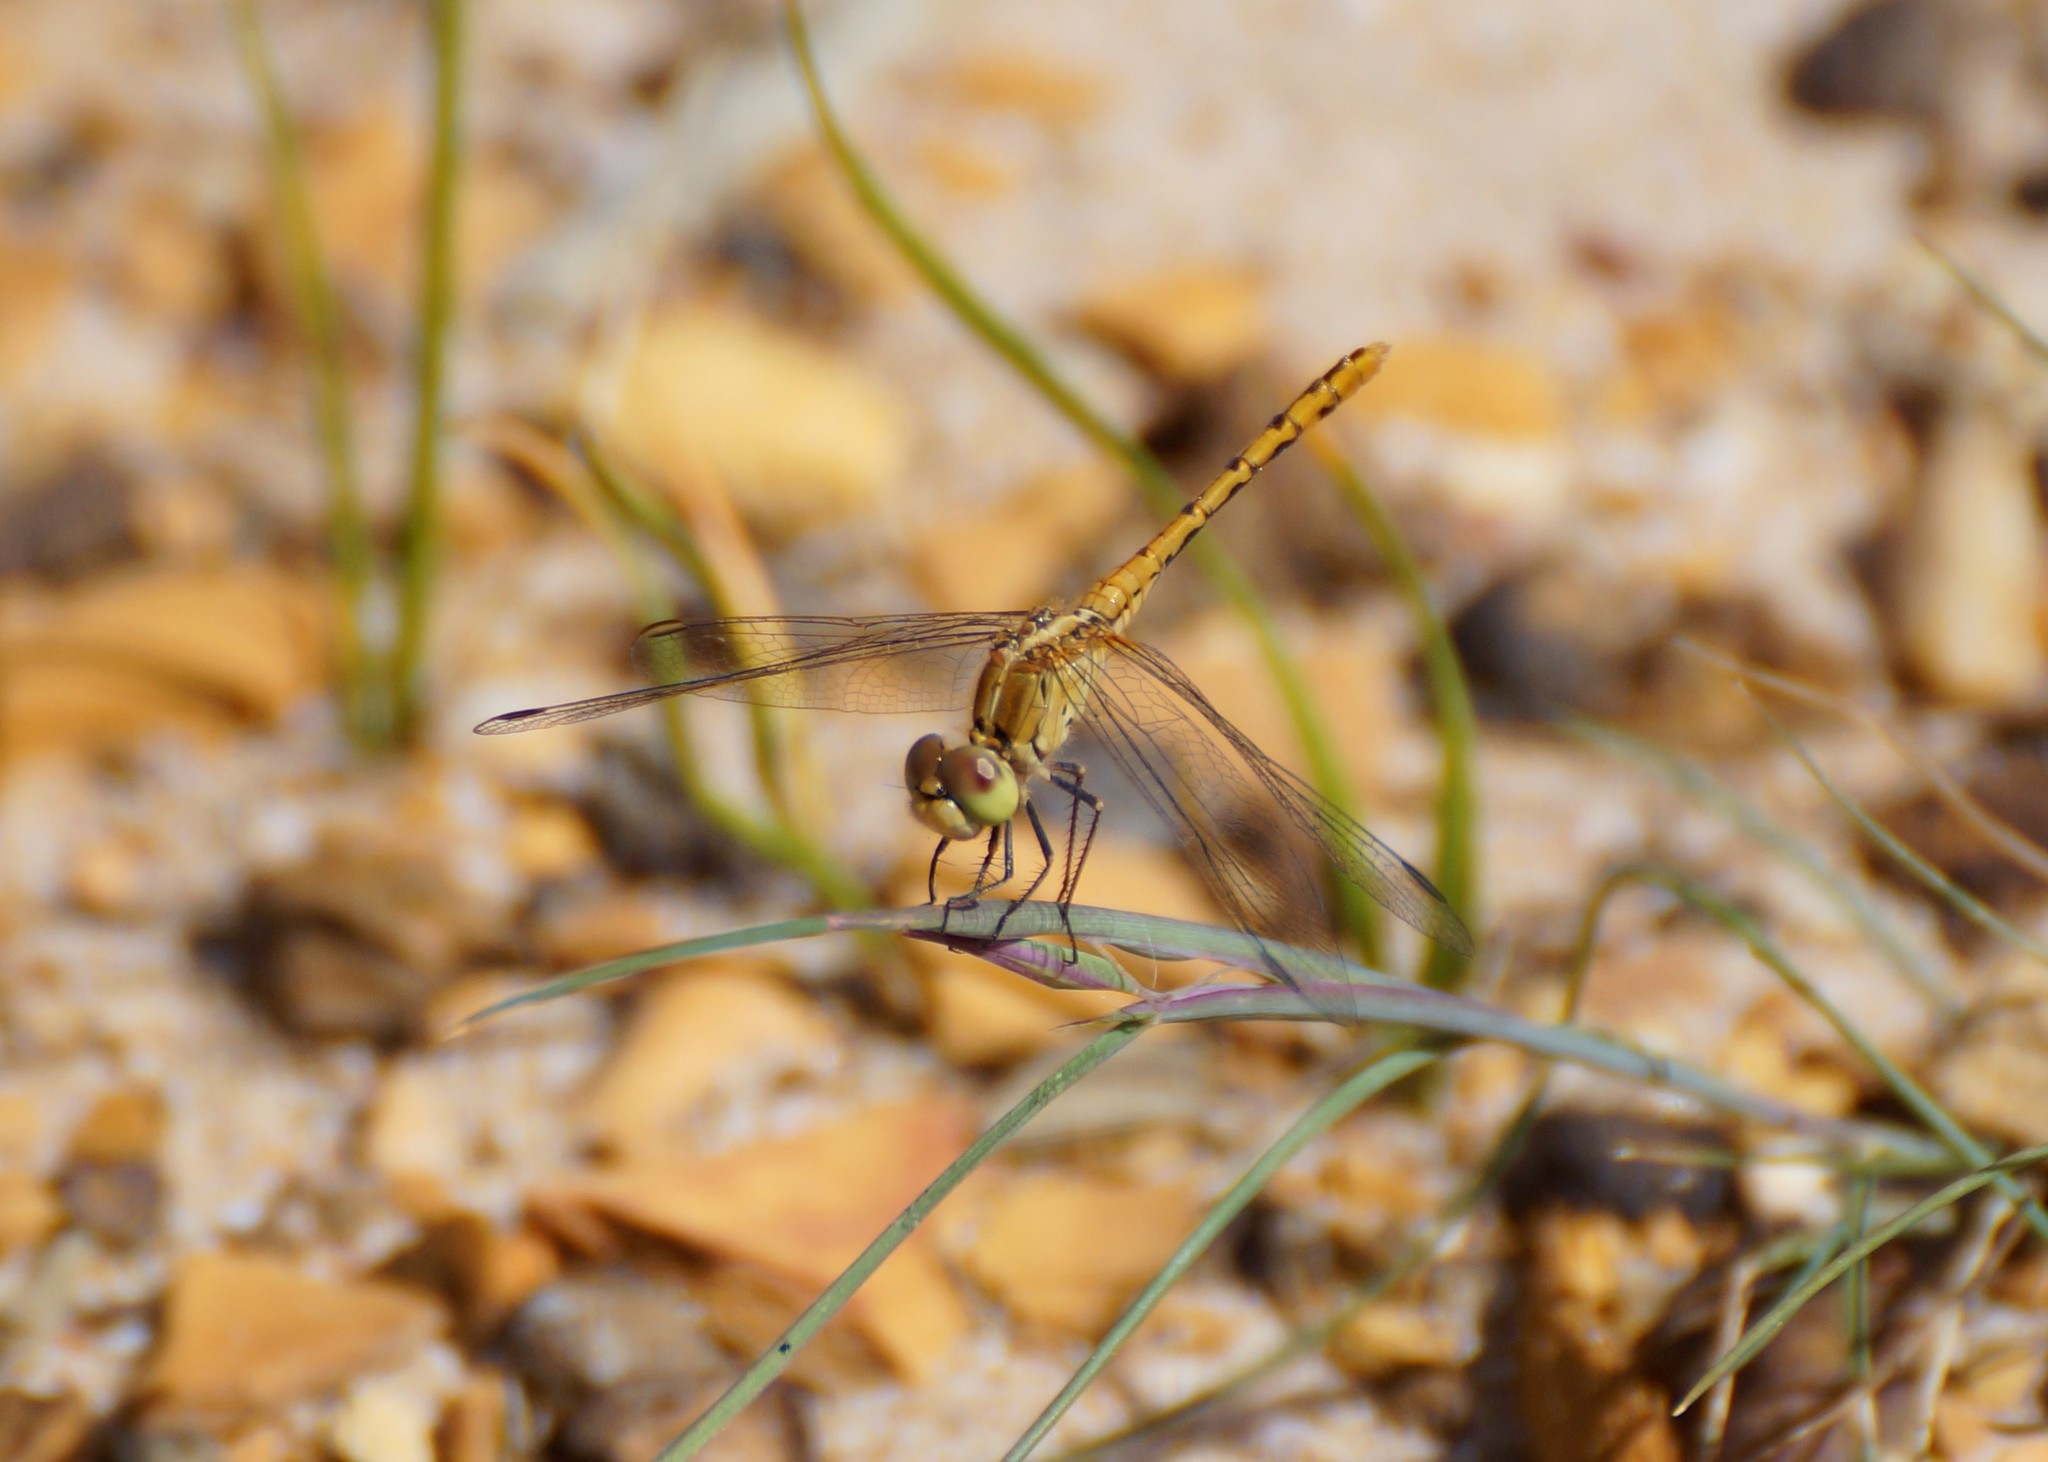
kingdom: Animalia
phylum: Arthropoda
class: Insecta
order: Odonata
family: Libellulidae
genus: Diplacodes
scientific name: Diplacodes bipunctata
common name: Red percher dragonfly
